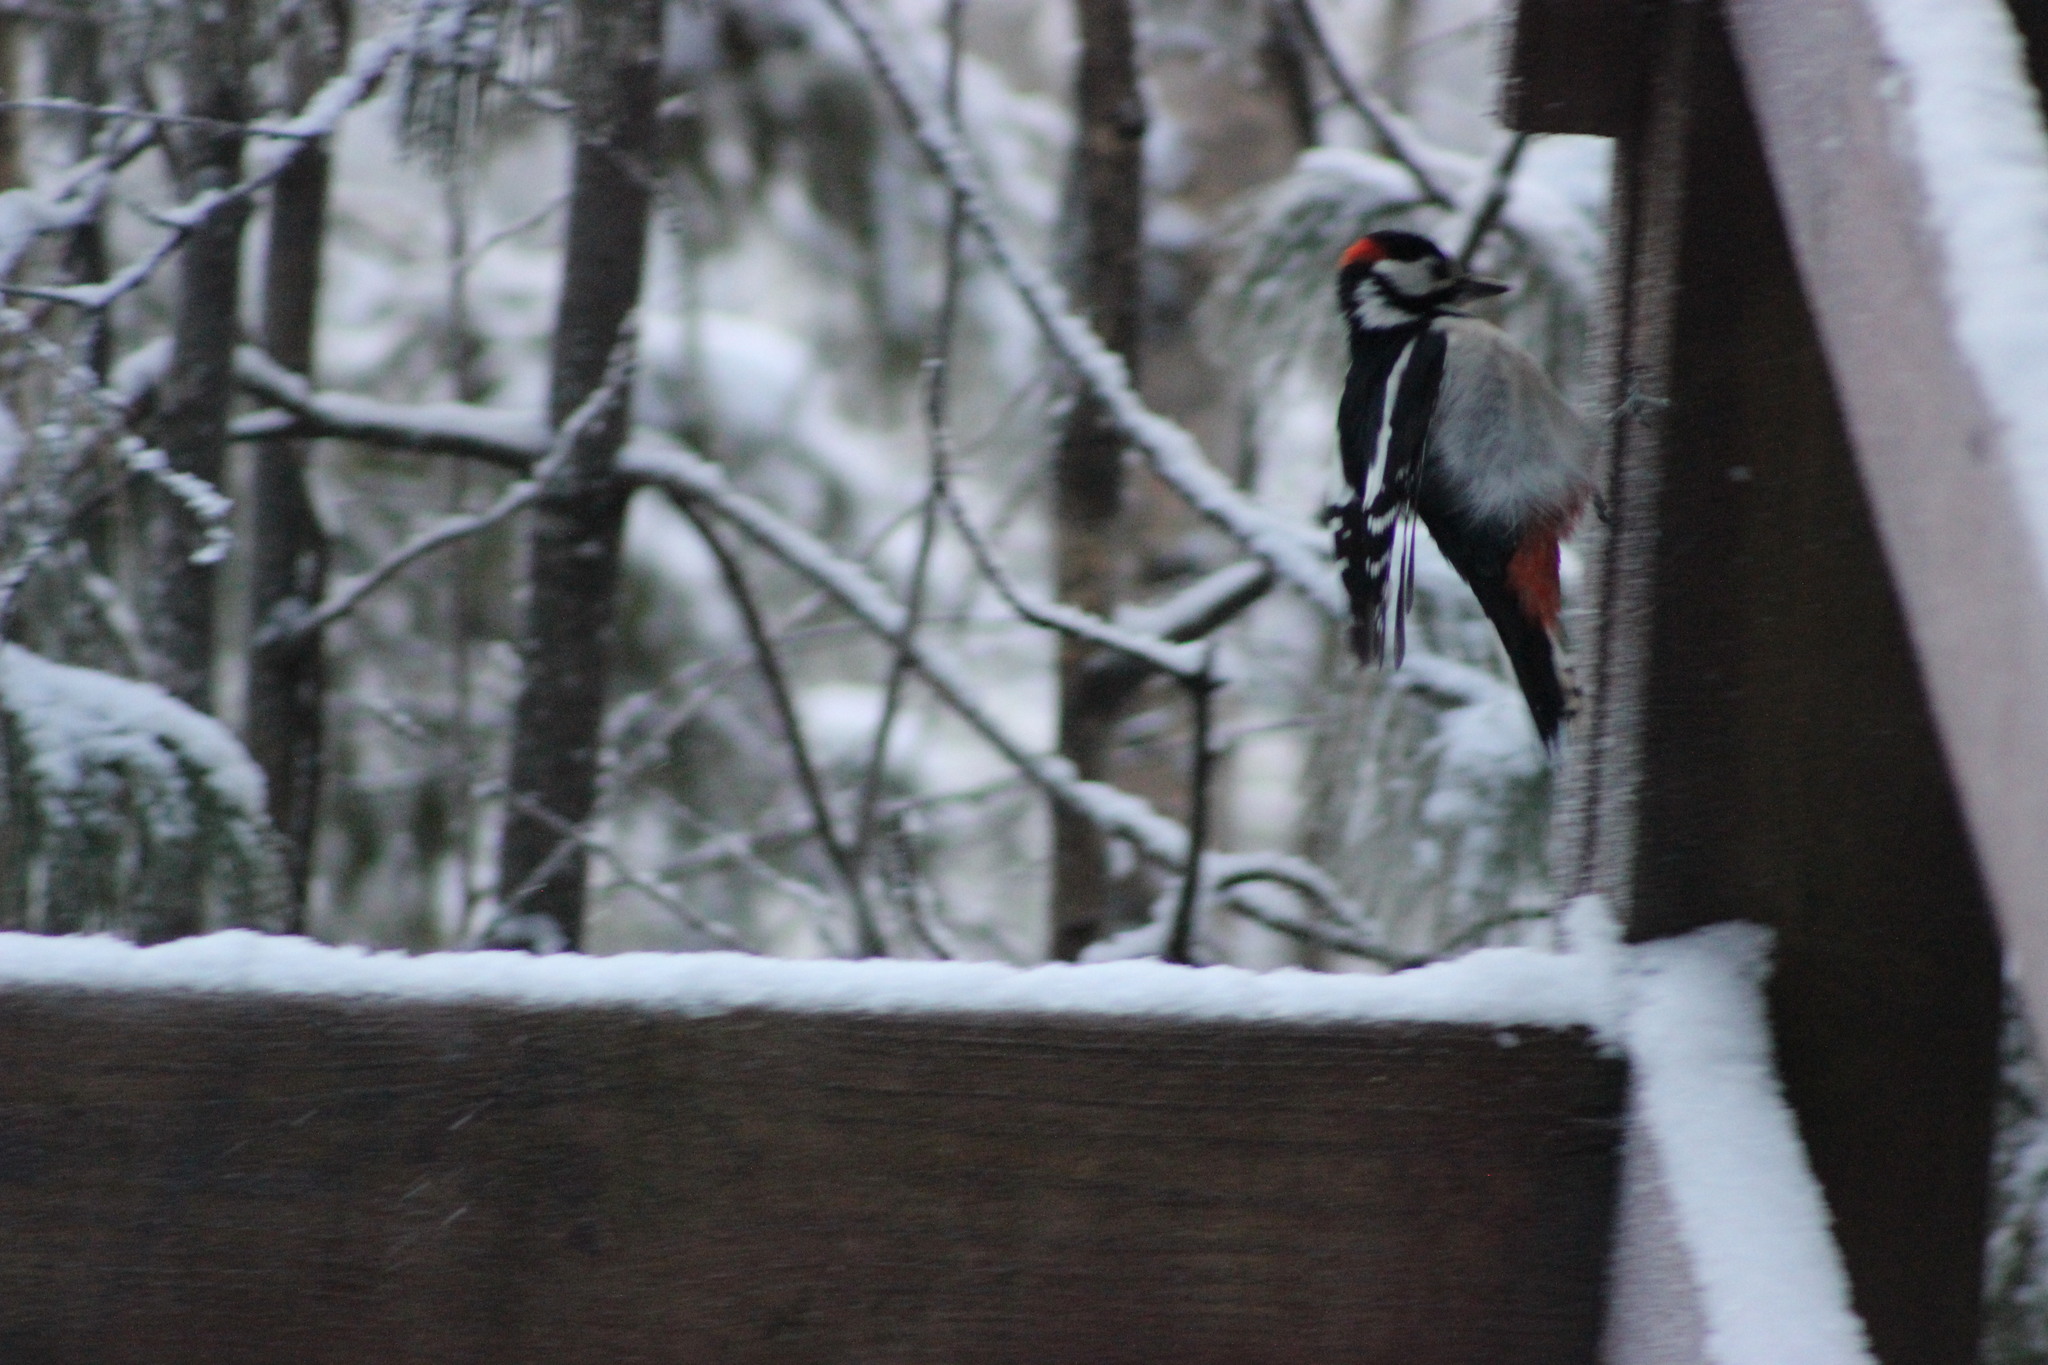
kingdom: Animalia
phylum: Chordata
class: Aves
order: Piciformes
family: Picidae
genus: Dendrocopos
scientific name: Dendrocopos major
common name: Great spotted woodpecker
